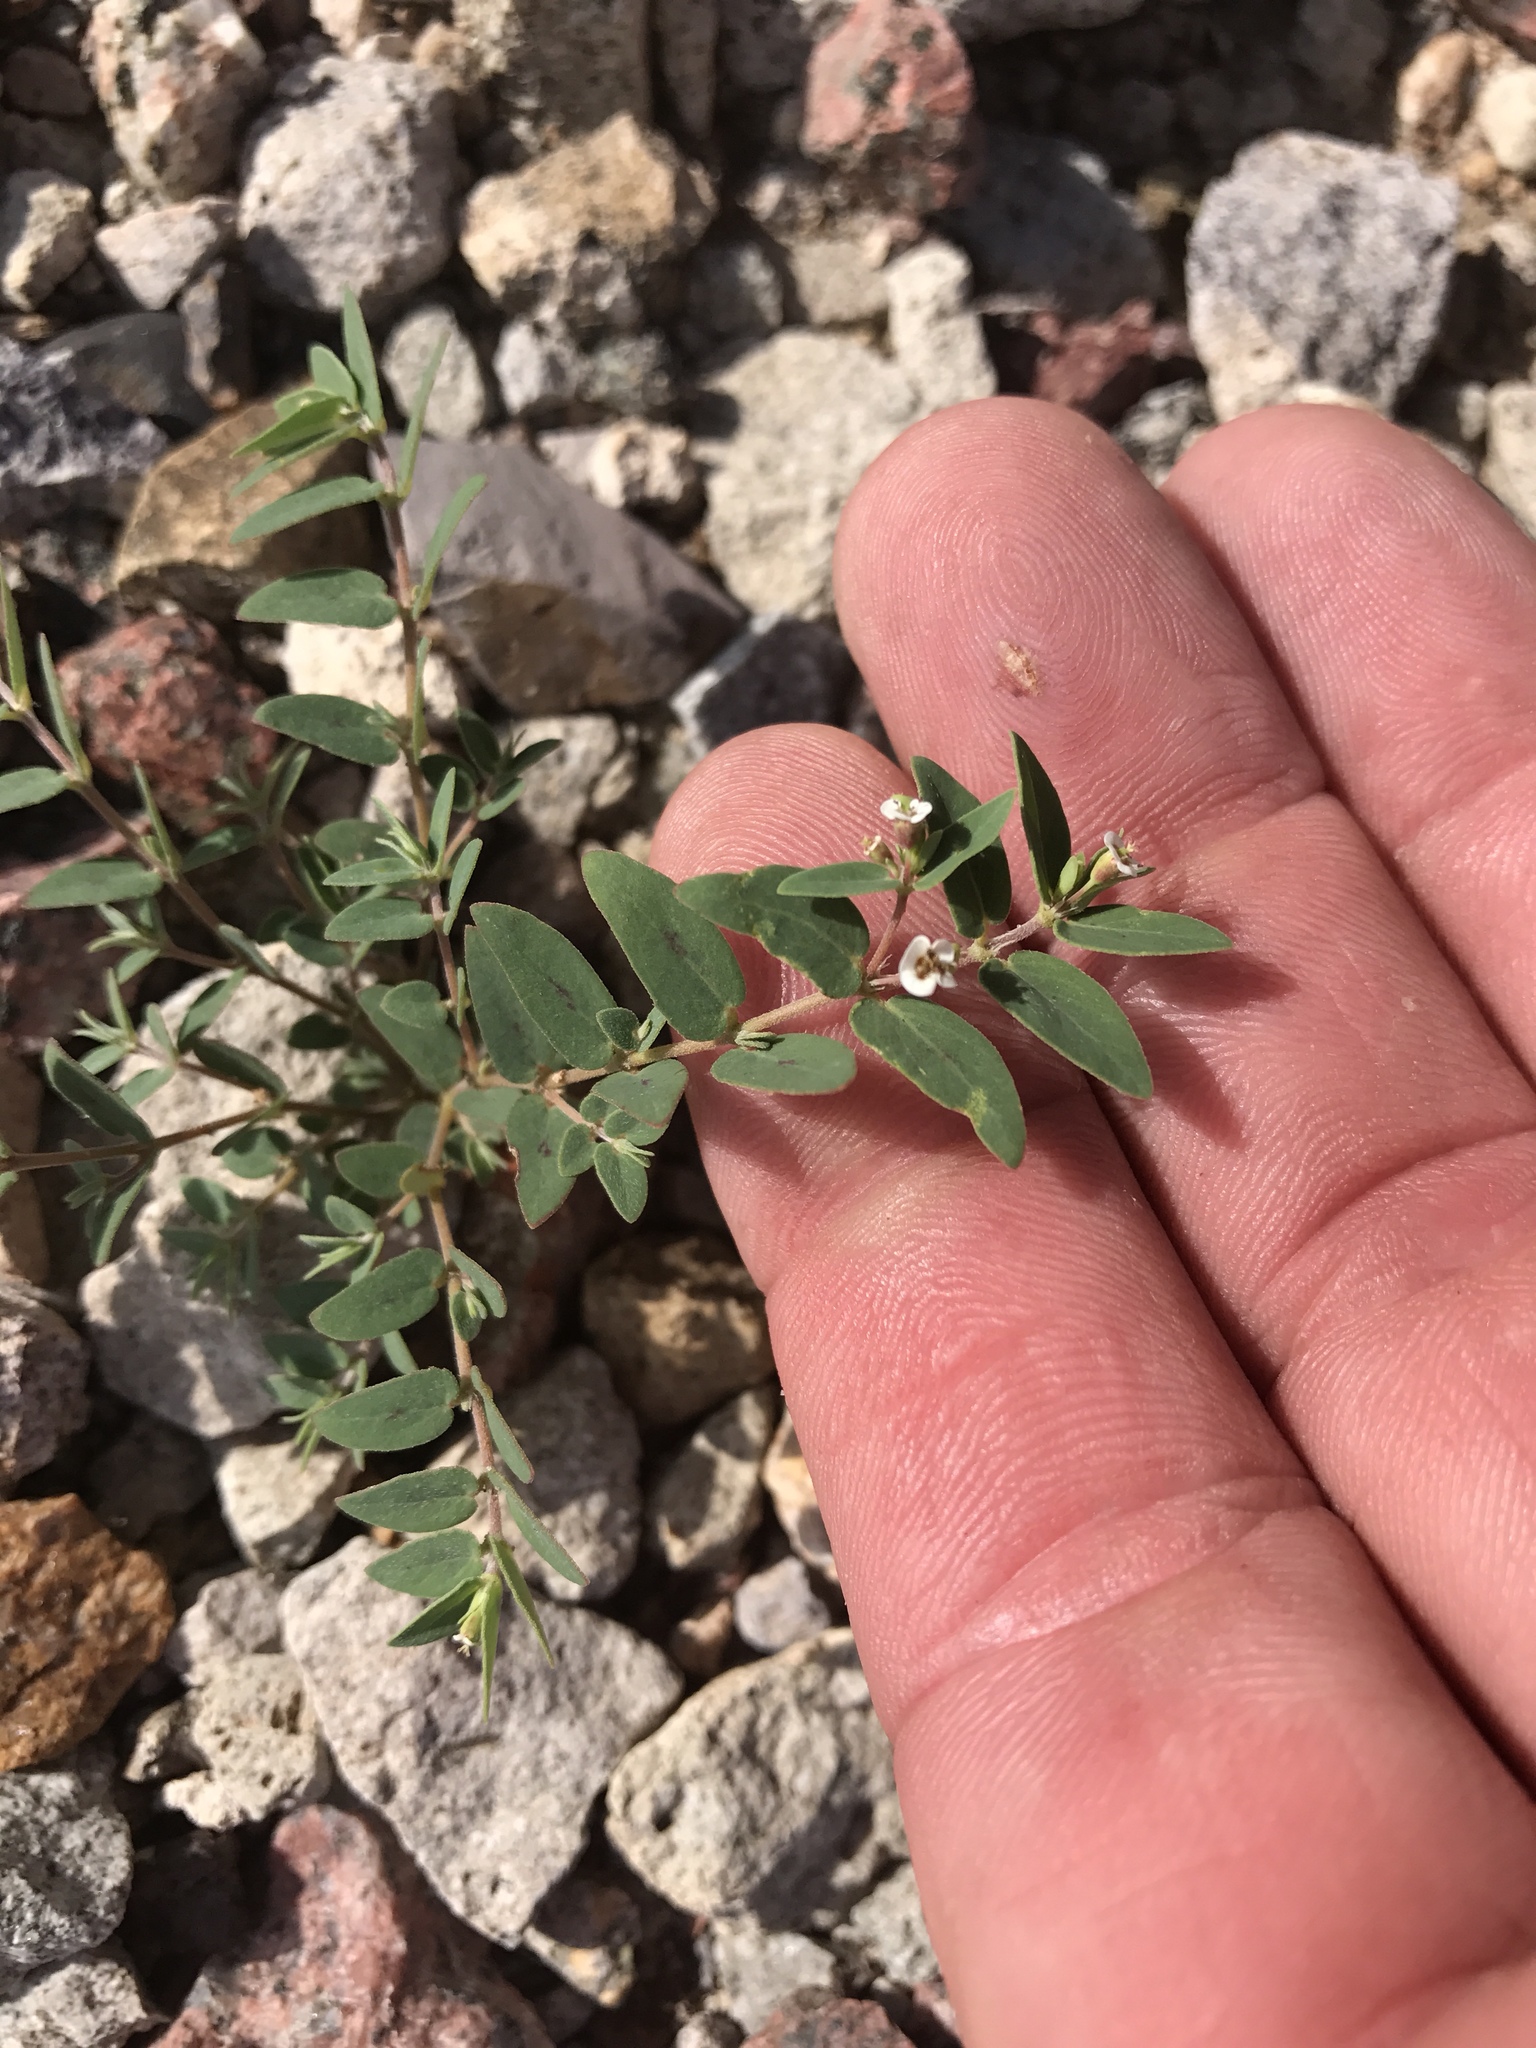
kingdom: Plantae
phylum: Tracheophyta
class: Magnoliopsida
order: Malpighiales
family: Euphorbiaceae
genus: Euphorbia
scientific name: Euphorbia capitellata
